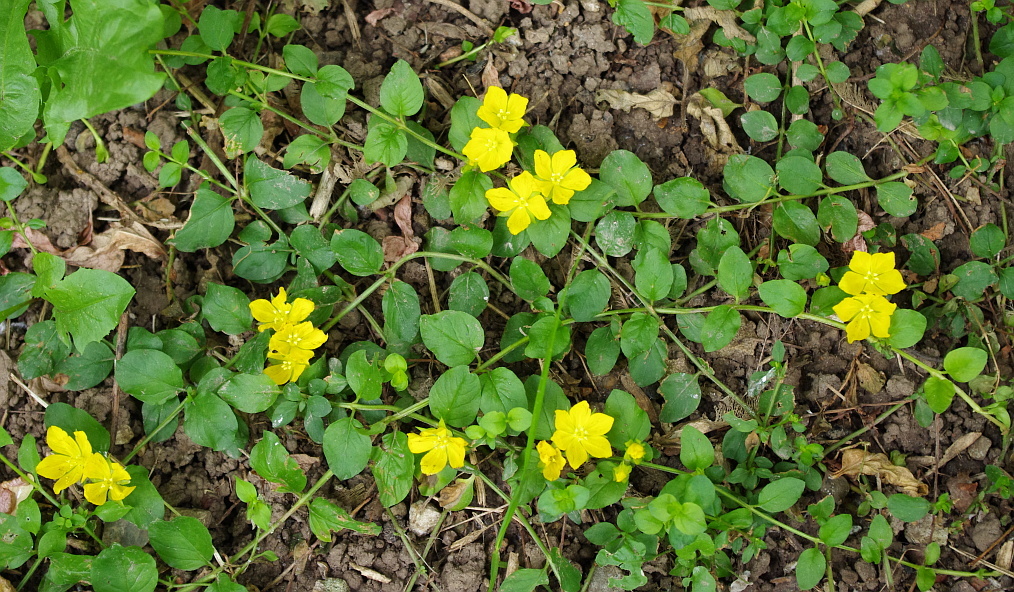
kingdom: Plantae
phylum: Tracheophyta
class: Magnoliopsida
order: Ericales
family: Primulaceae
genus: Lysimachia
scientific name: Lysimachia nummularia
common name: Moneywort
